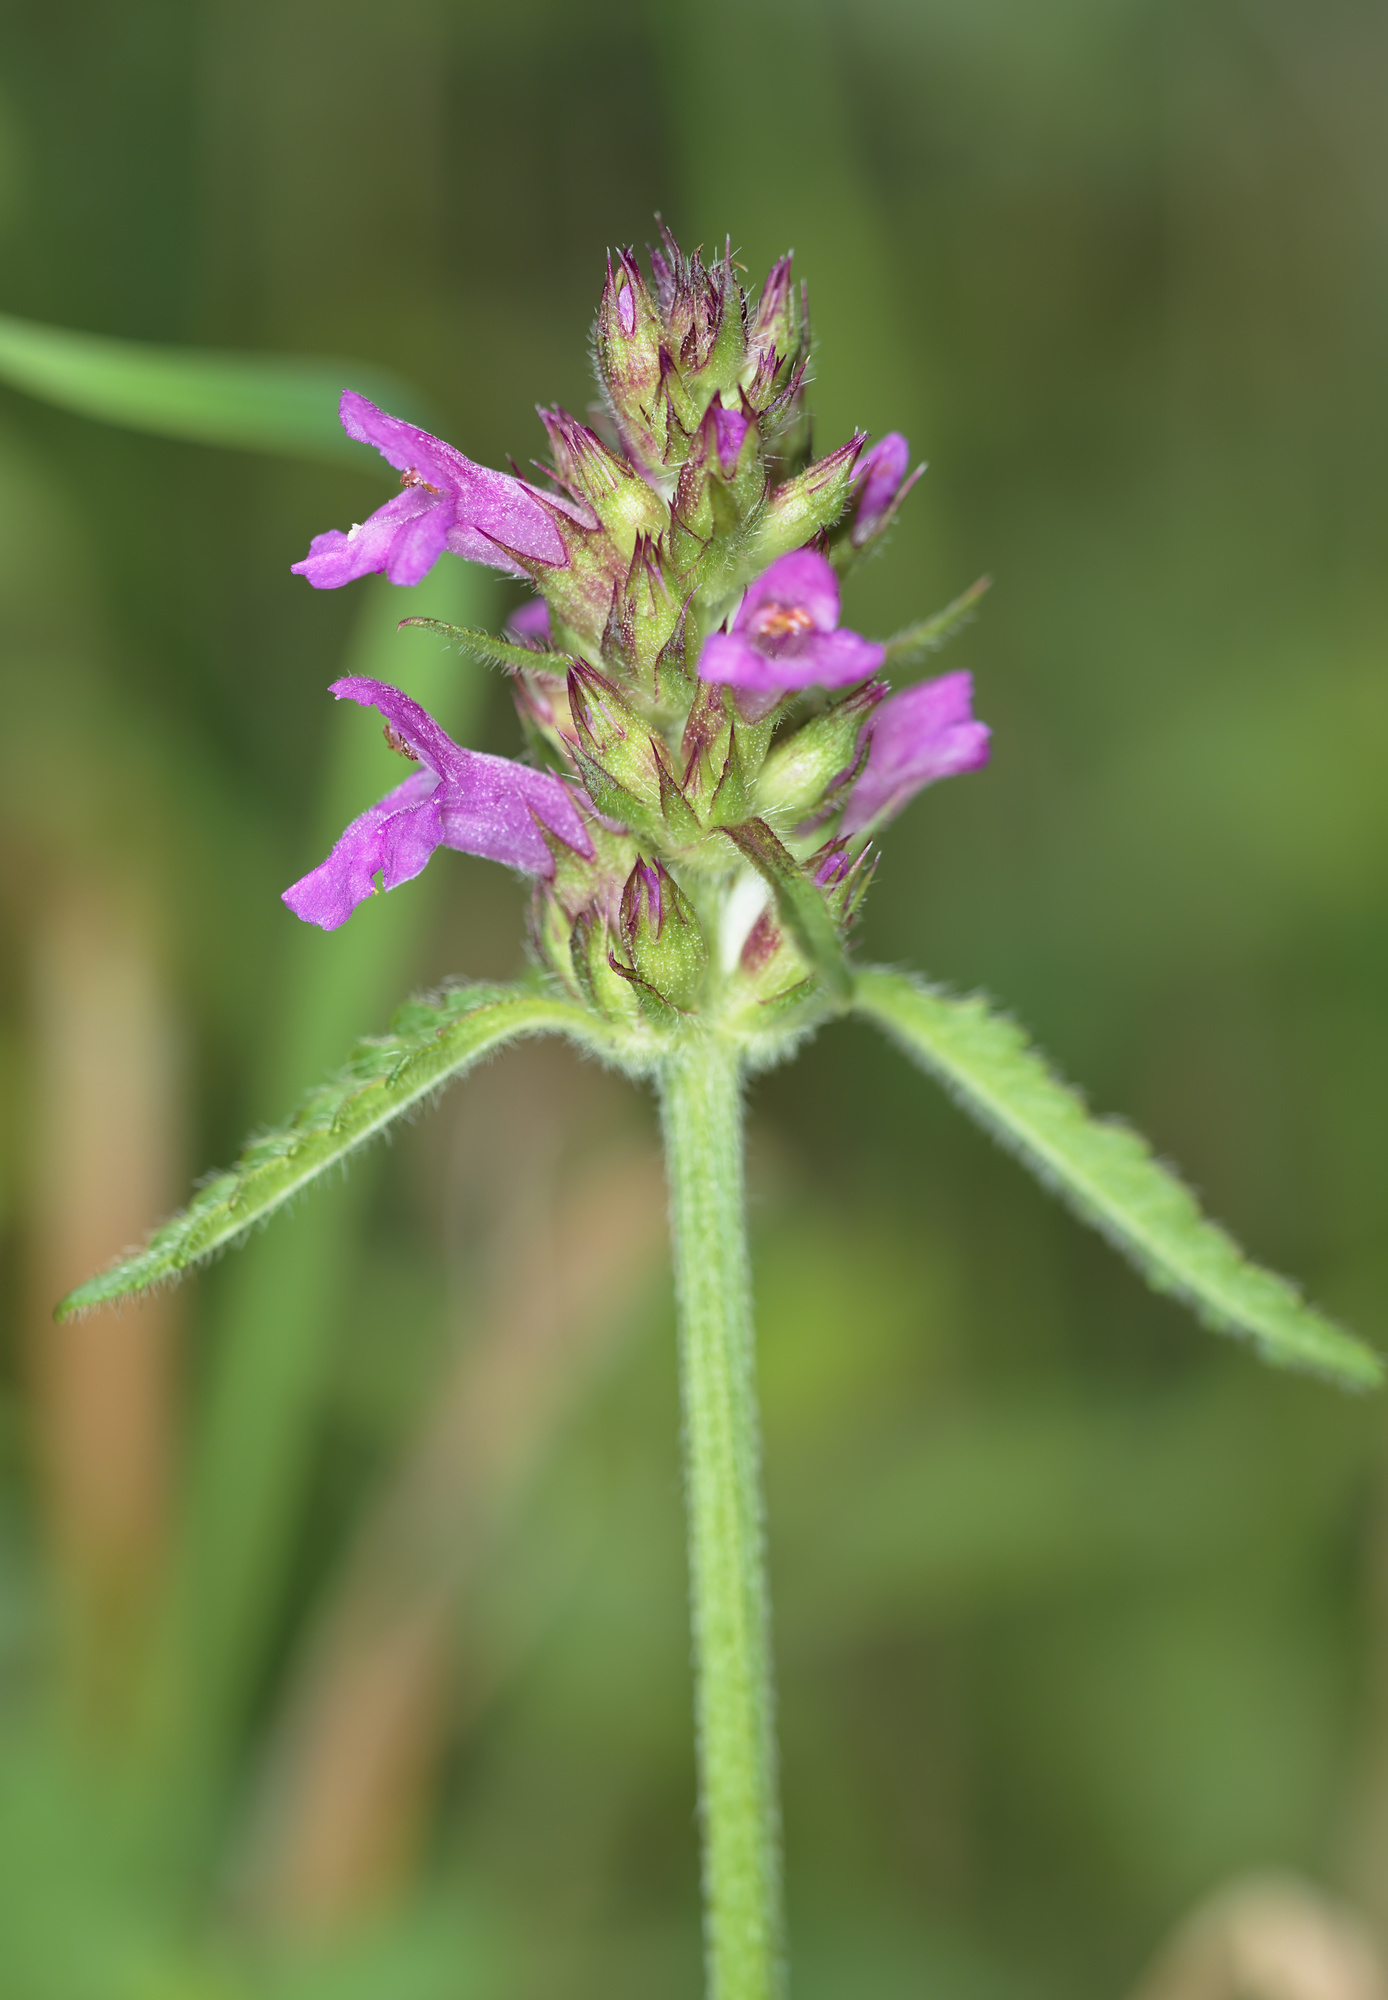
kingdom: Plantae
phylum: Tracheophyta
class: Magnoliopsida
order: Lamiales
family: Lamiaceae
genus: Betonica
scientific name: Betonica officinalis
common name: Bishop's-wort
